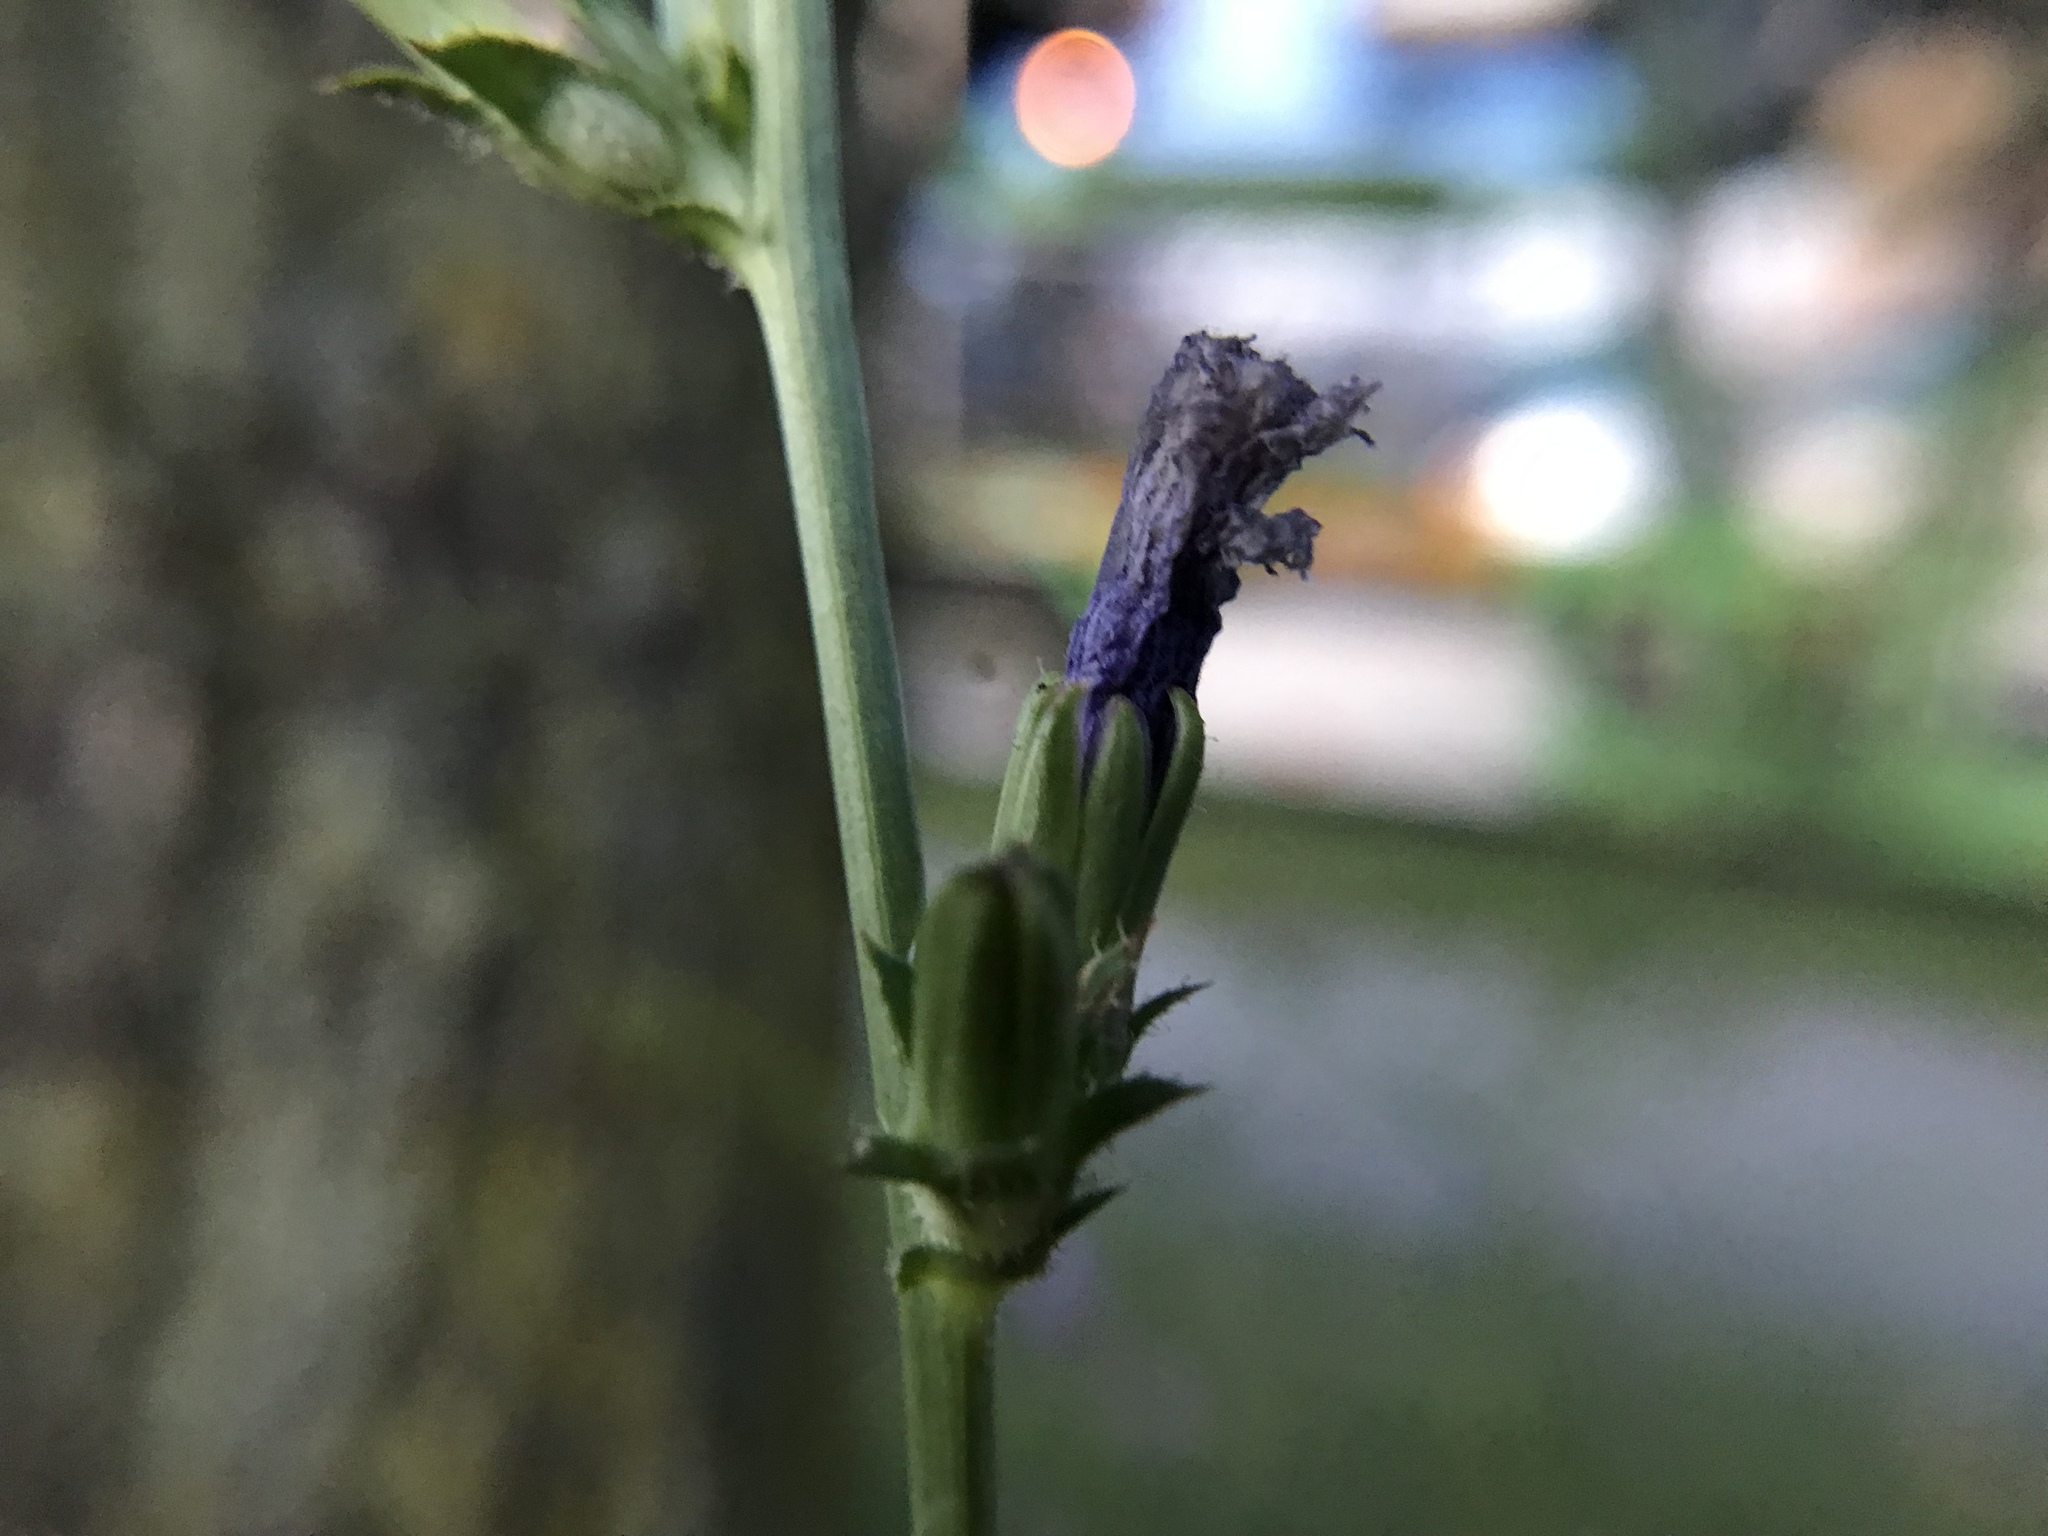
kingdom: Plantae
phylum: Tracheophyta
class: Magnoliopsida
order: Asterales
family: Asteraceae
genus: Cichorium
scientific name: Cichorium intybus
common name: Chicory
